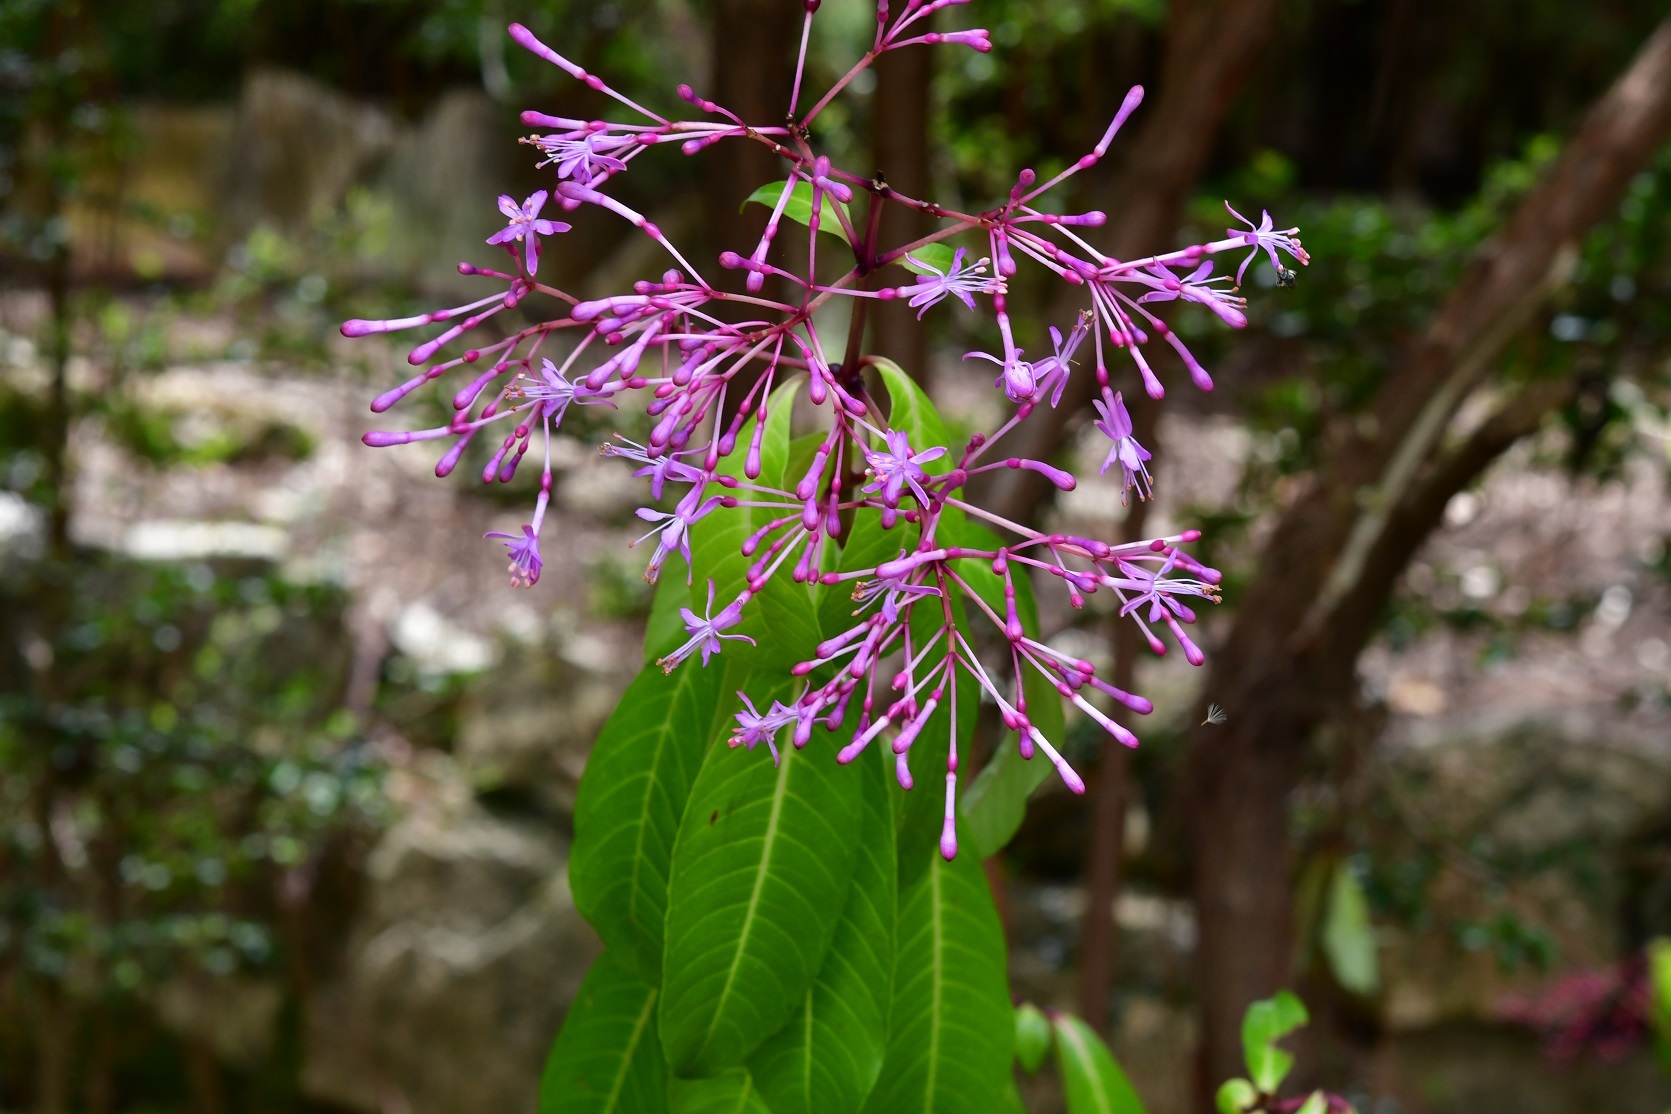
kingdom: Plantae
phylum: Tracheophyta
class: Magnoliopsida
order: Myrtales
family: Onagraceae
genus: Fuchsia
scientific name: Fuchsia paniculata
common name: Shrubby fuchsia
